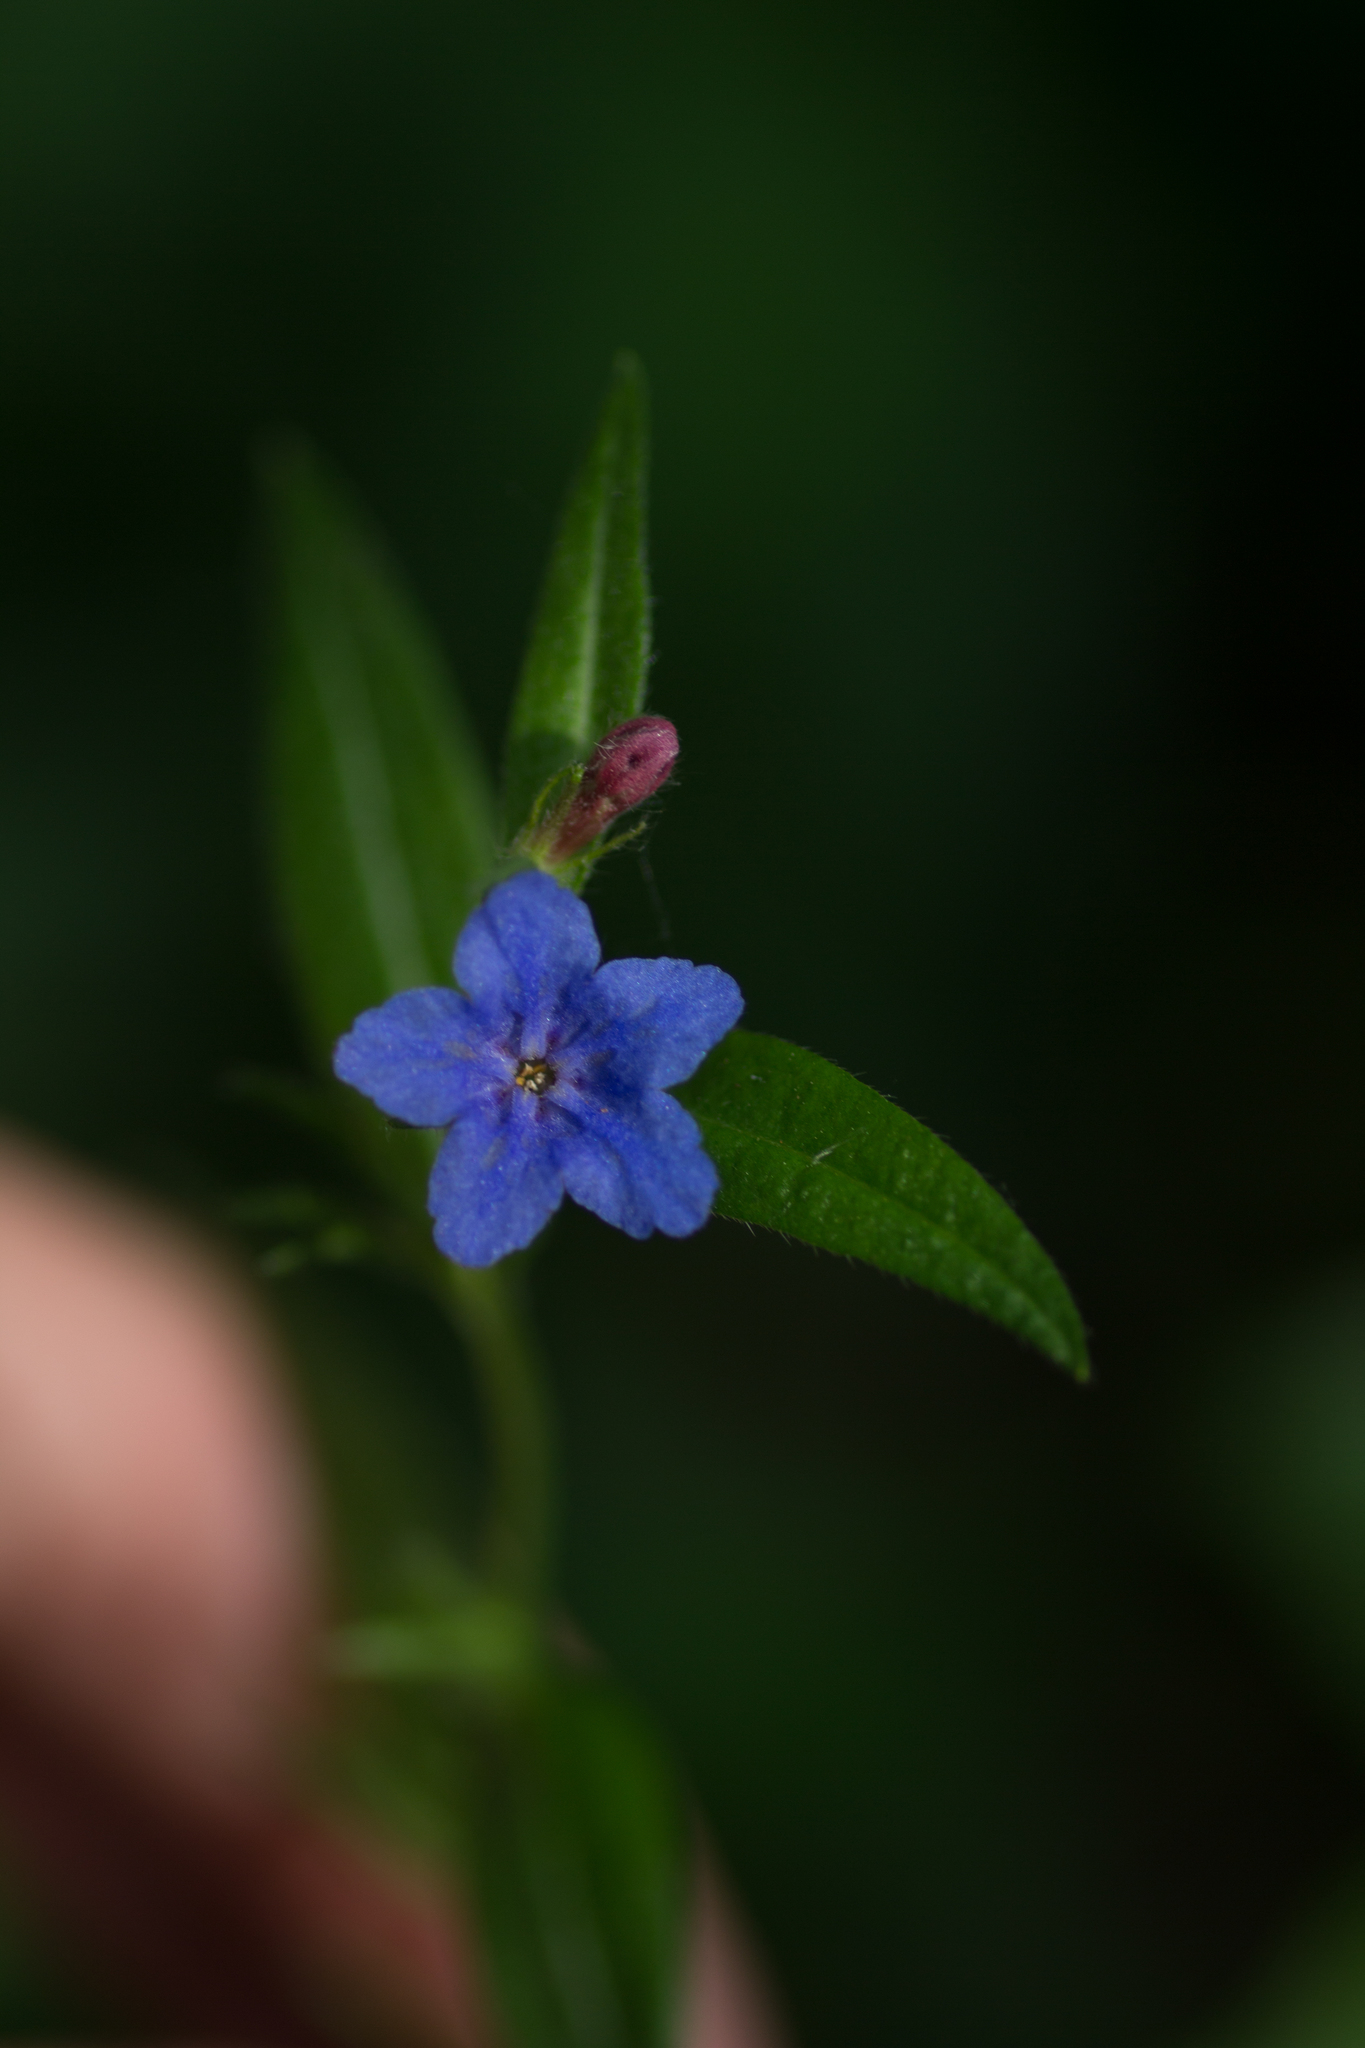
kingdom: Plantae
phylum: Tracheophyta
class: Magnoliopsida
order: Boraginales
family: Boraginaceae
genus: Aegonychon
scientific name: Aegonychon purpurocaeruleum
